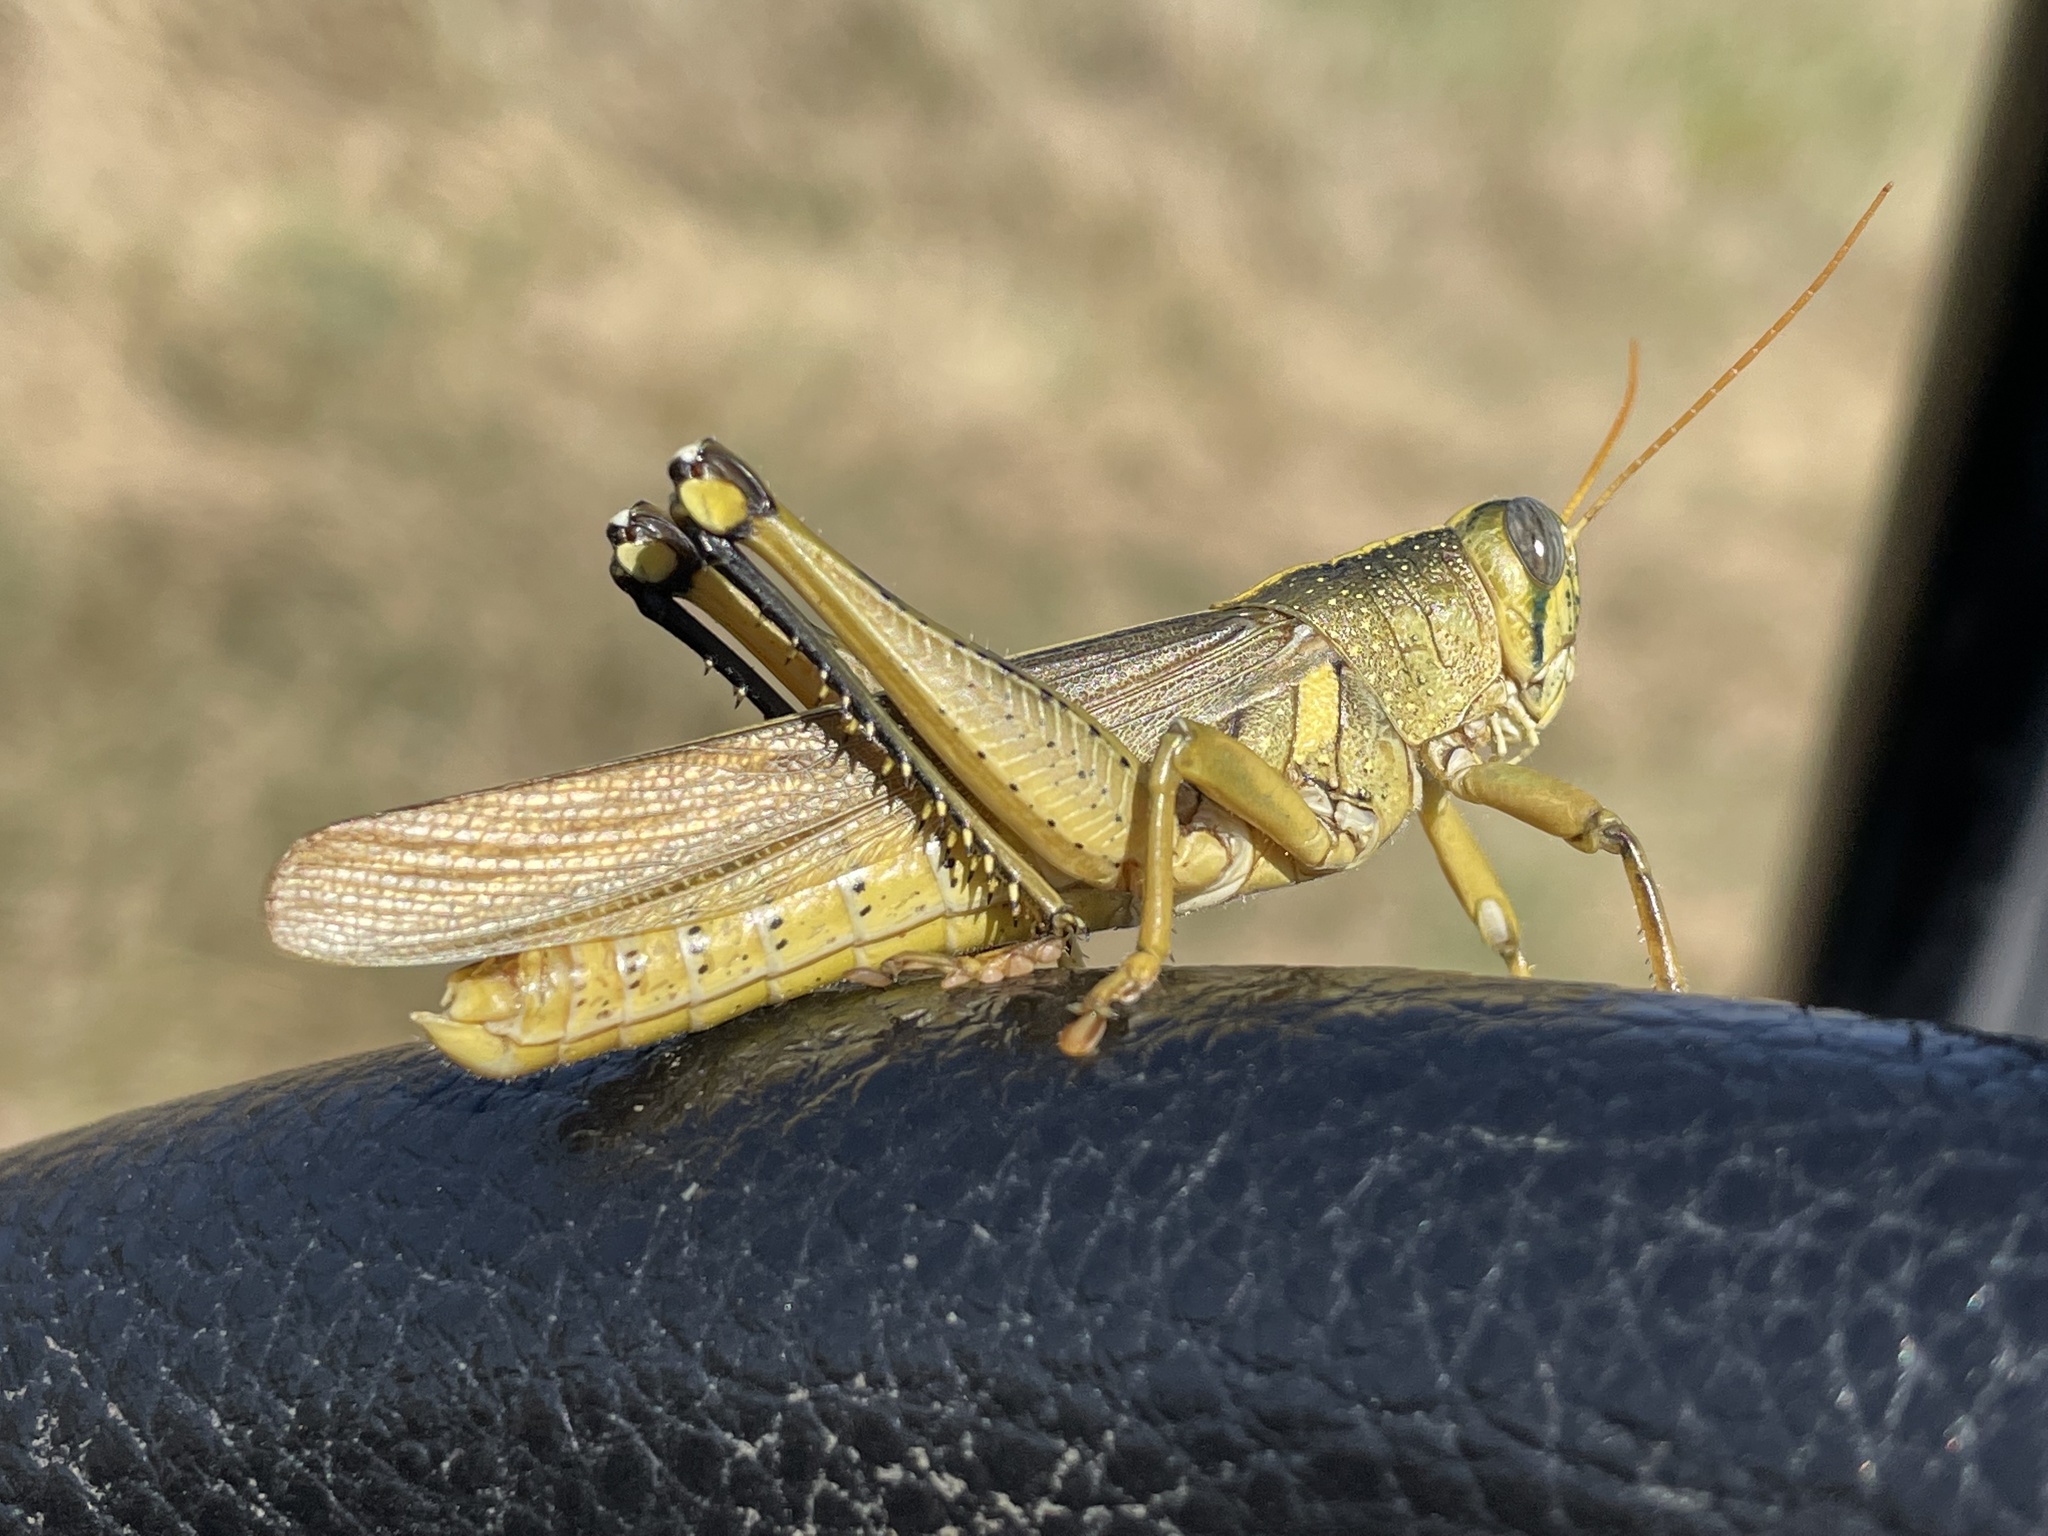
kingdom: Animalia
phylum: Arthropoda
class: Insecta
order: Orthoptera
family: Acrididae
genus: Schistocerca
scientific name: Schistocerca lineata
